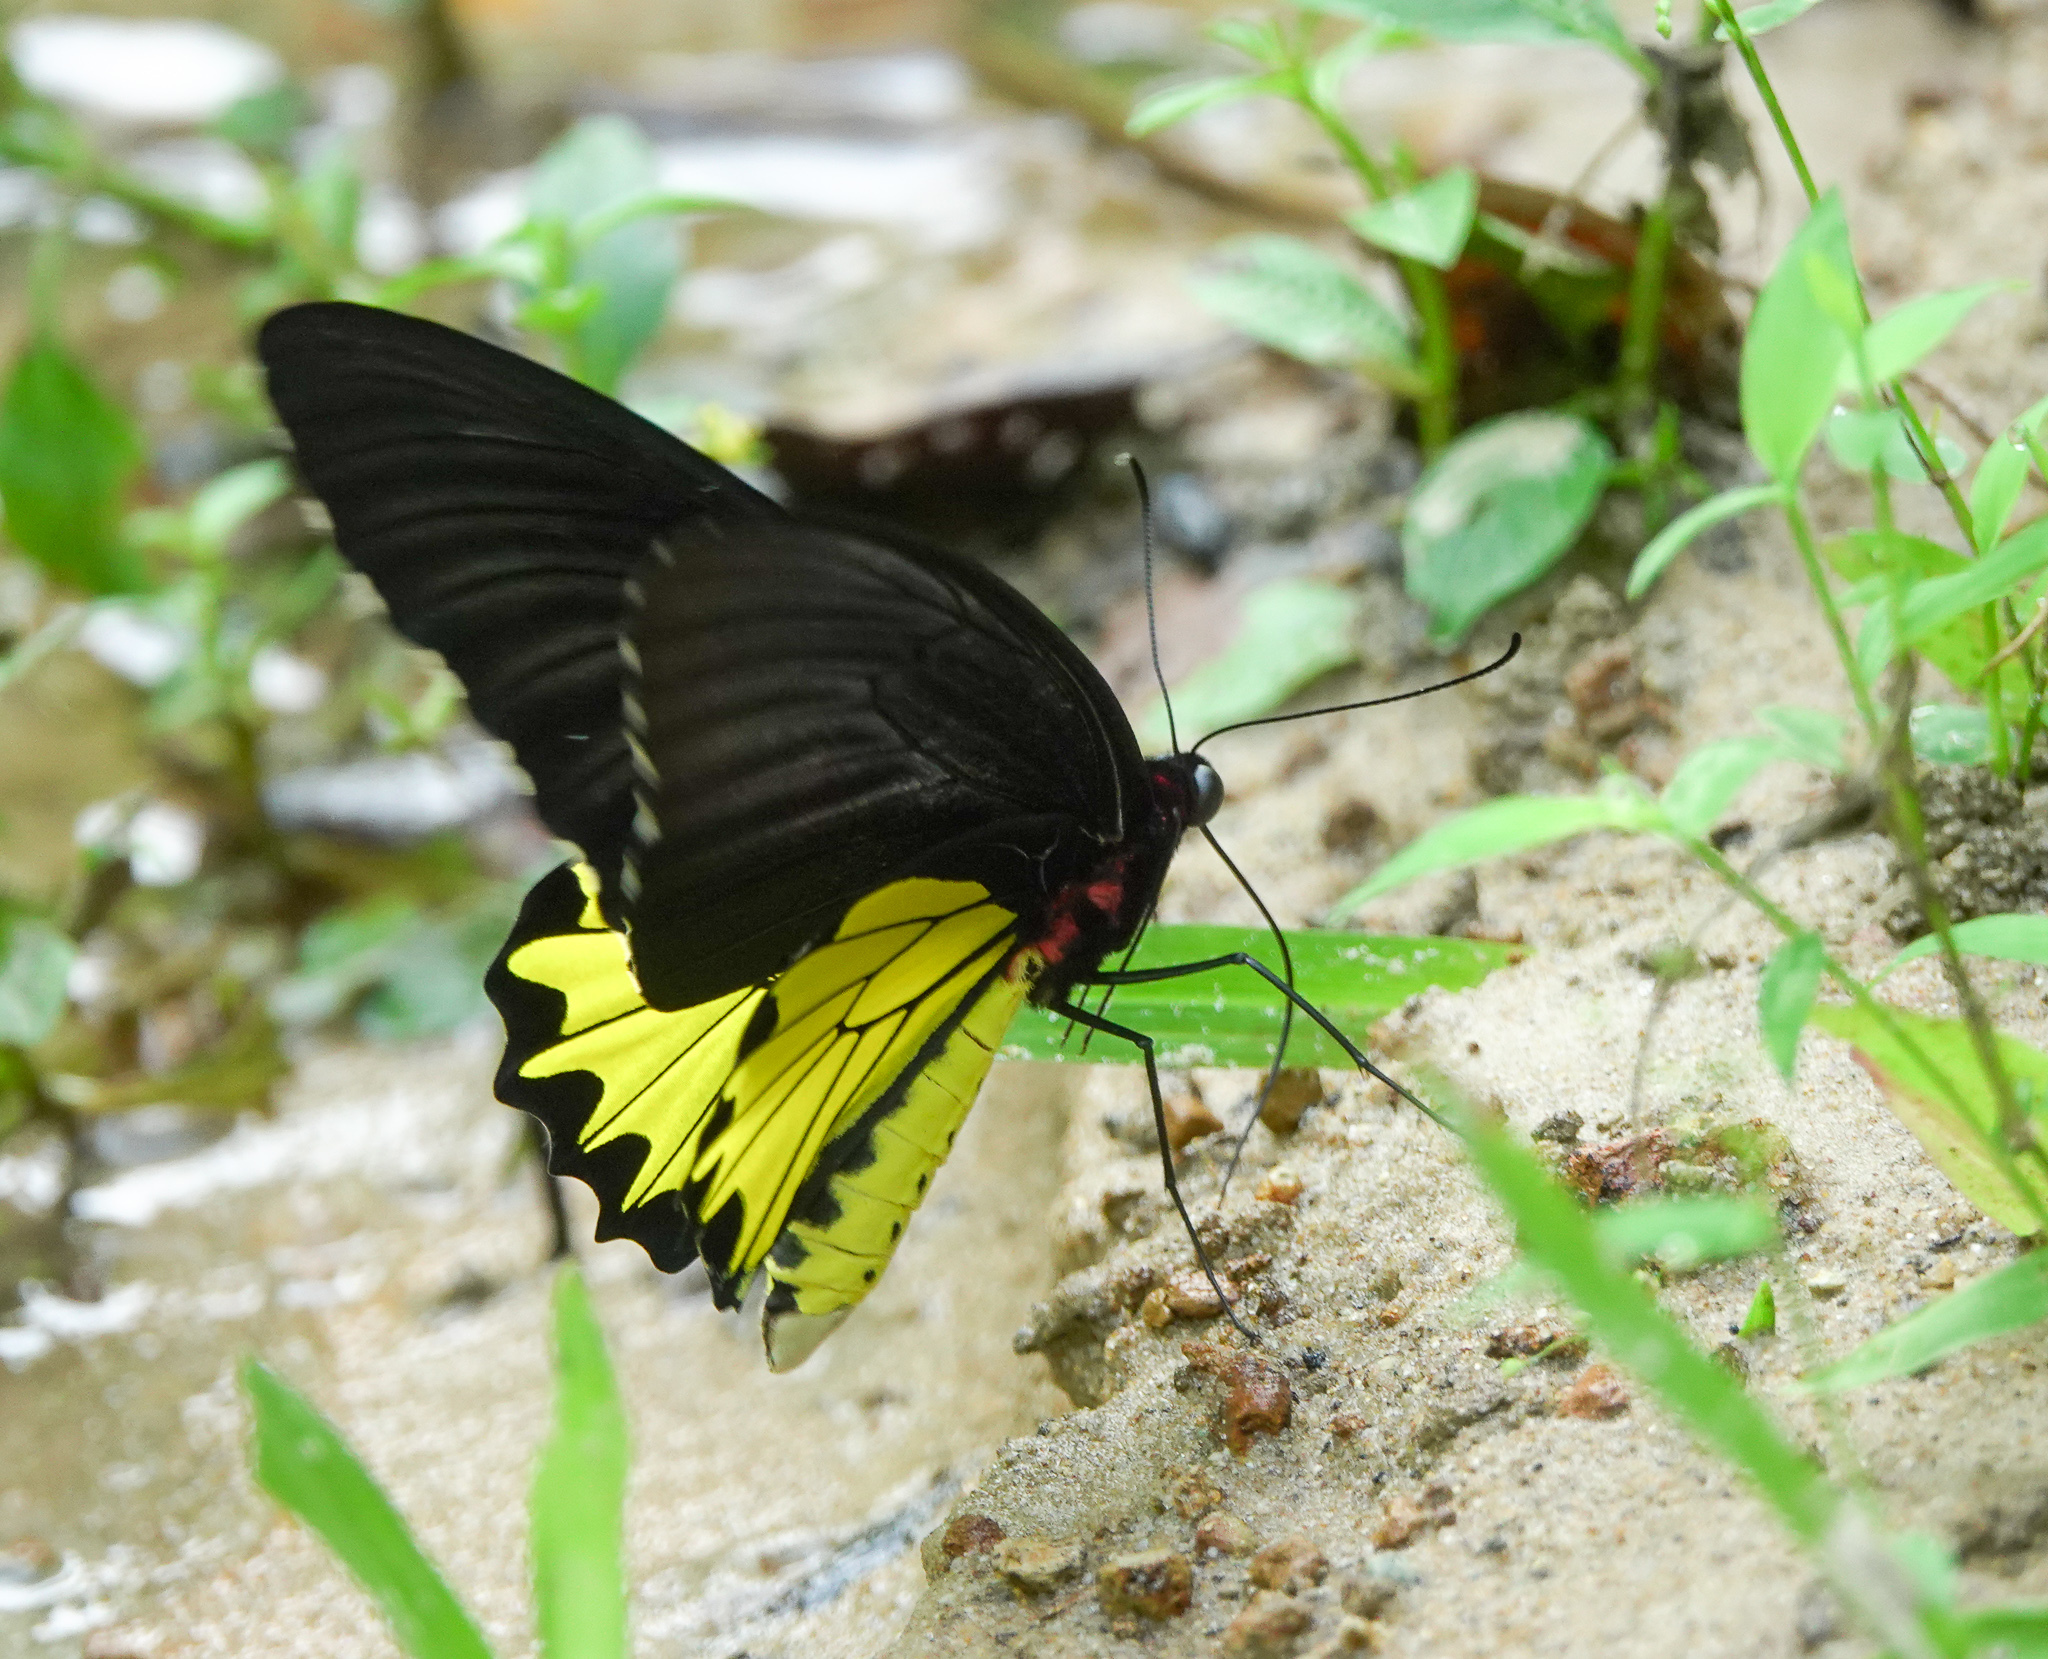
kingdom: Animalia
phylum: Arthropoda
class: Insecta
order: Lepidoptera
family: Papilionidae
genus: Troides
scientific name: Troides helena
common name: Common birdwing
